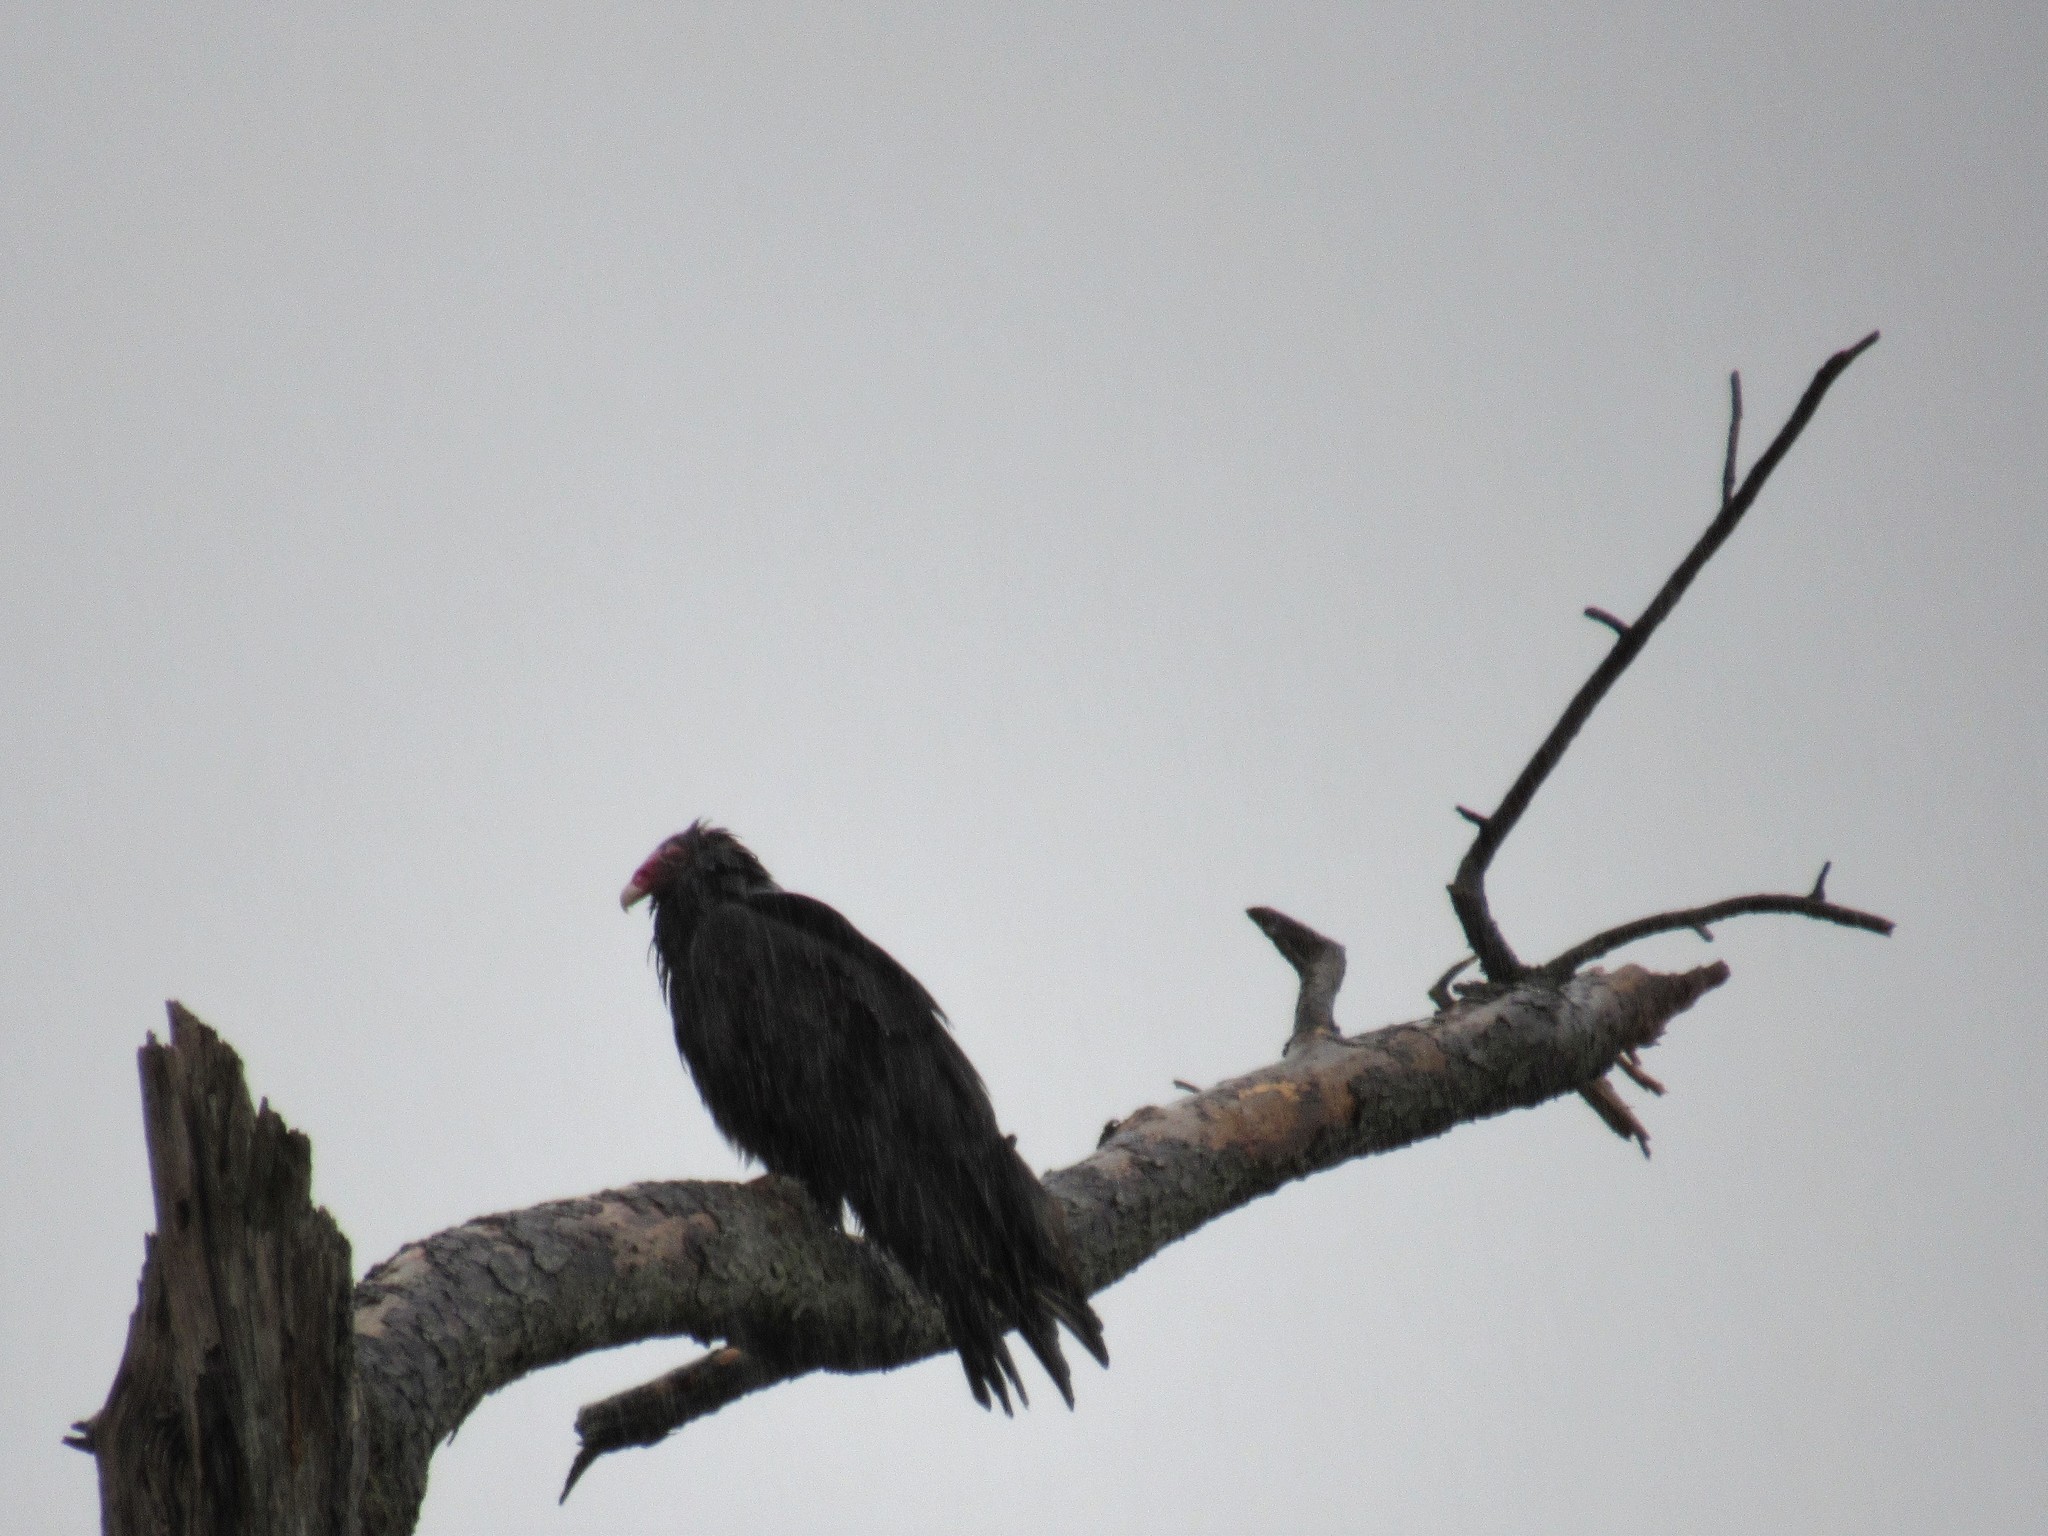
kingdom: Animalia
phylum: Chordata
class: Aves
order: Accipitriformes
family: Cathartidae
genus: Cathartes
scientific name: Cathartes aura
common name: Turkey vulture
